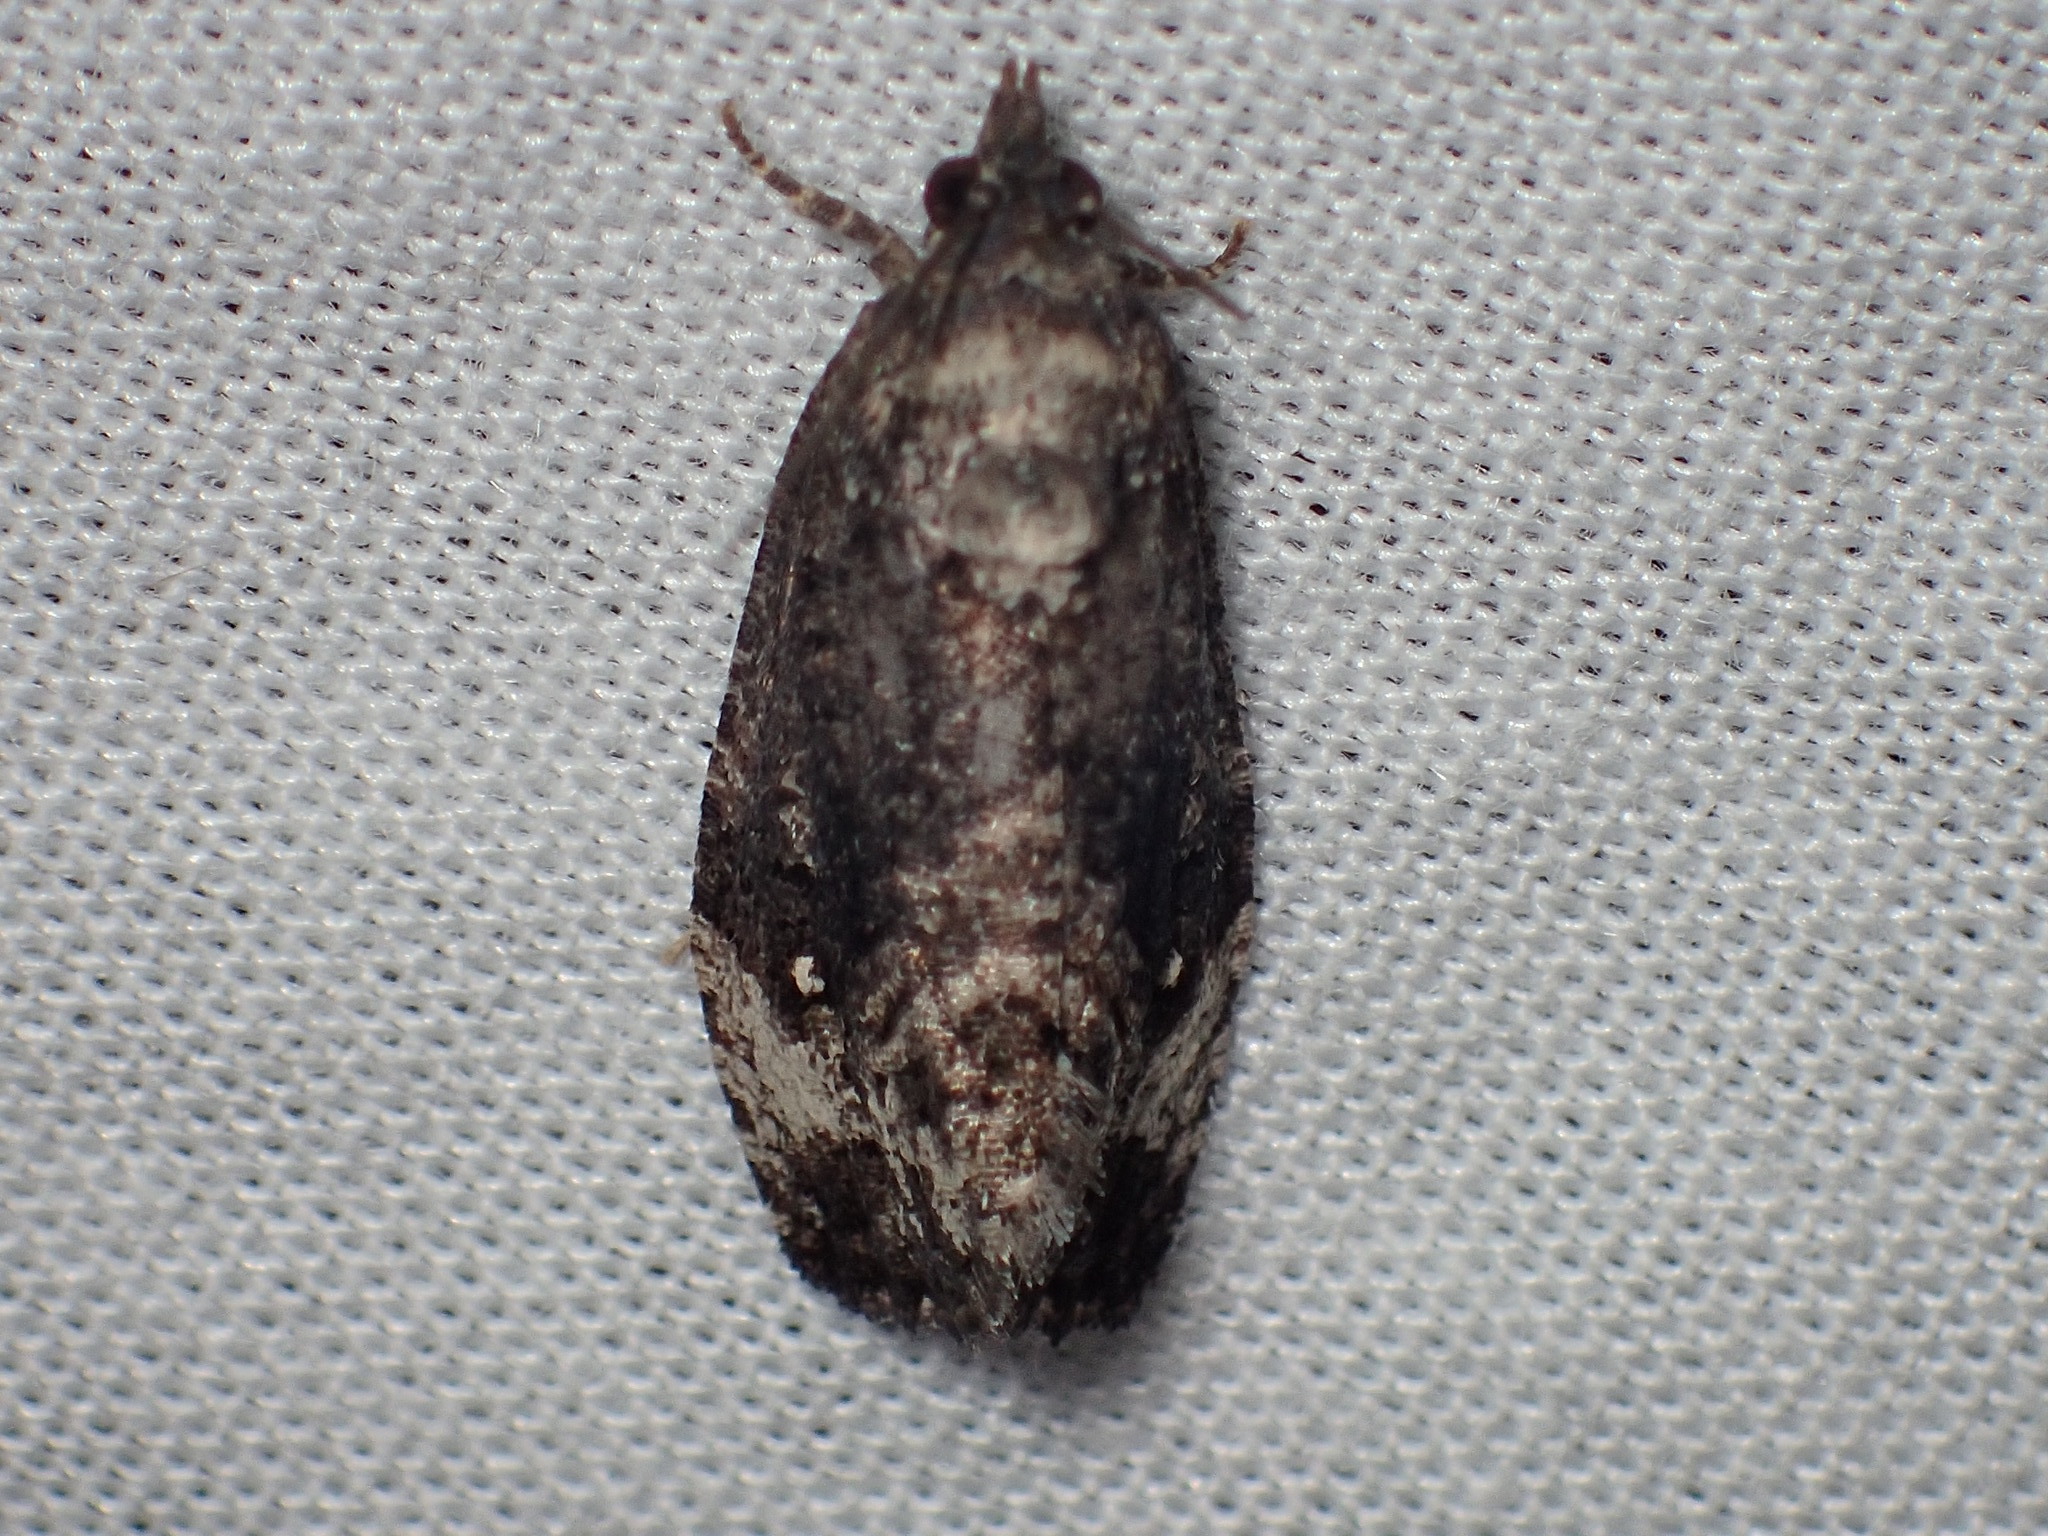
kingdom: Animalia
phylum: Arthropoda
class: Insecta
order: Lepidoptera
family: Tortricidae
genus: Gymnandrosoma
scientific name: Gymnandrosoma punctidiscanum
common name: Dotted ecdytolopha moth
